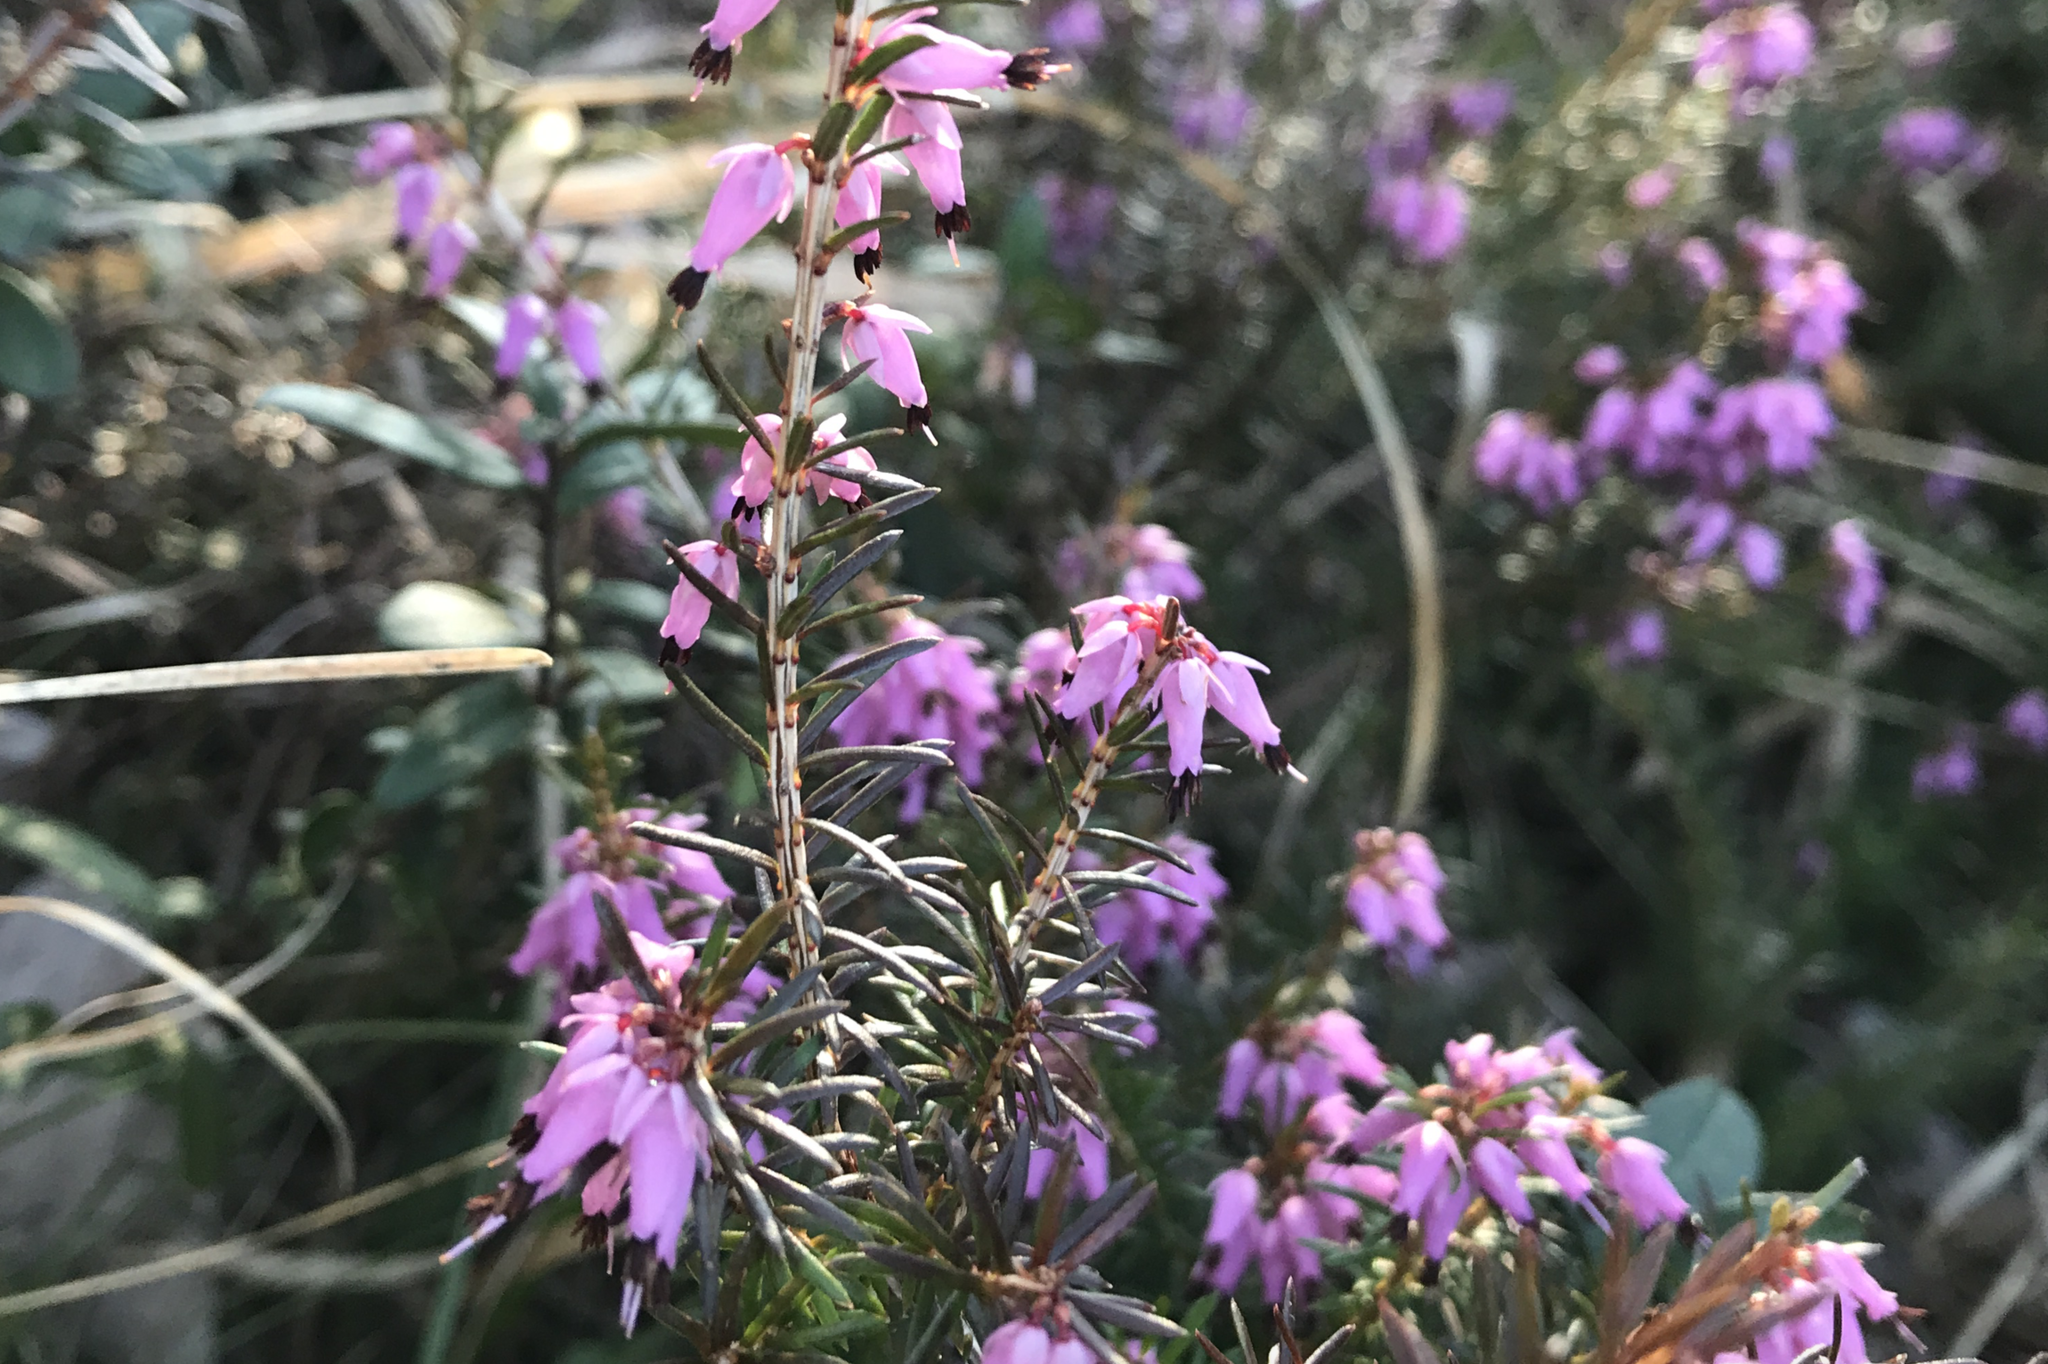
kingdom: Plantae
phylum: Tracheophyta
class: Magnoliopsida
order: Ericales
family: Ericaceae
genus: Erica
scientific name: Erica carnea
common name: Winter heath
